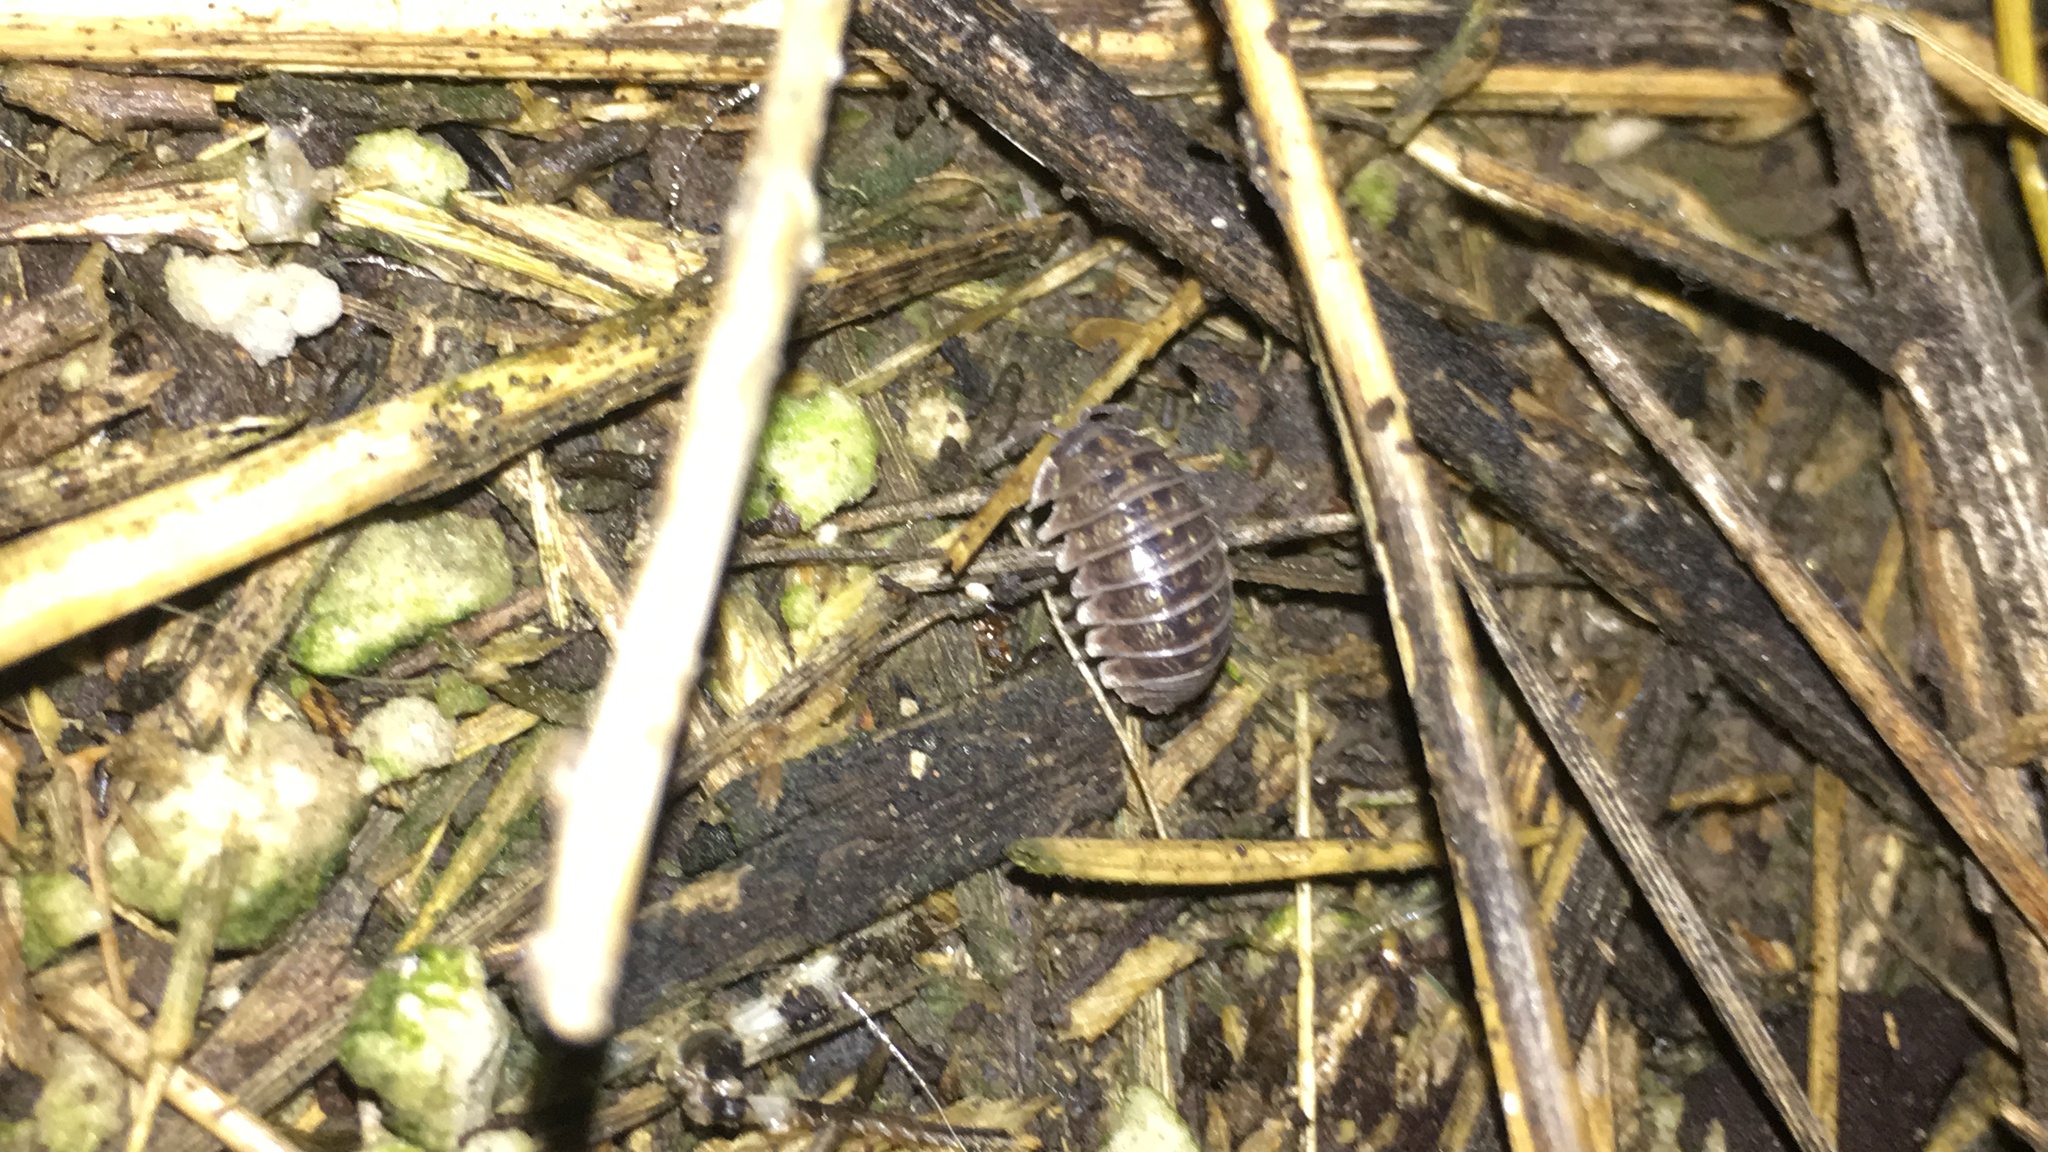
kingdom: Animalia
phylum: Arthropoda
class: Malacostraca
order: Isopoda
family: Armadillidiidae
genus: Armadillidium
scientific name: Armadillidium vulgare
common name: Common pill woodlouse
